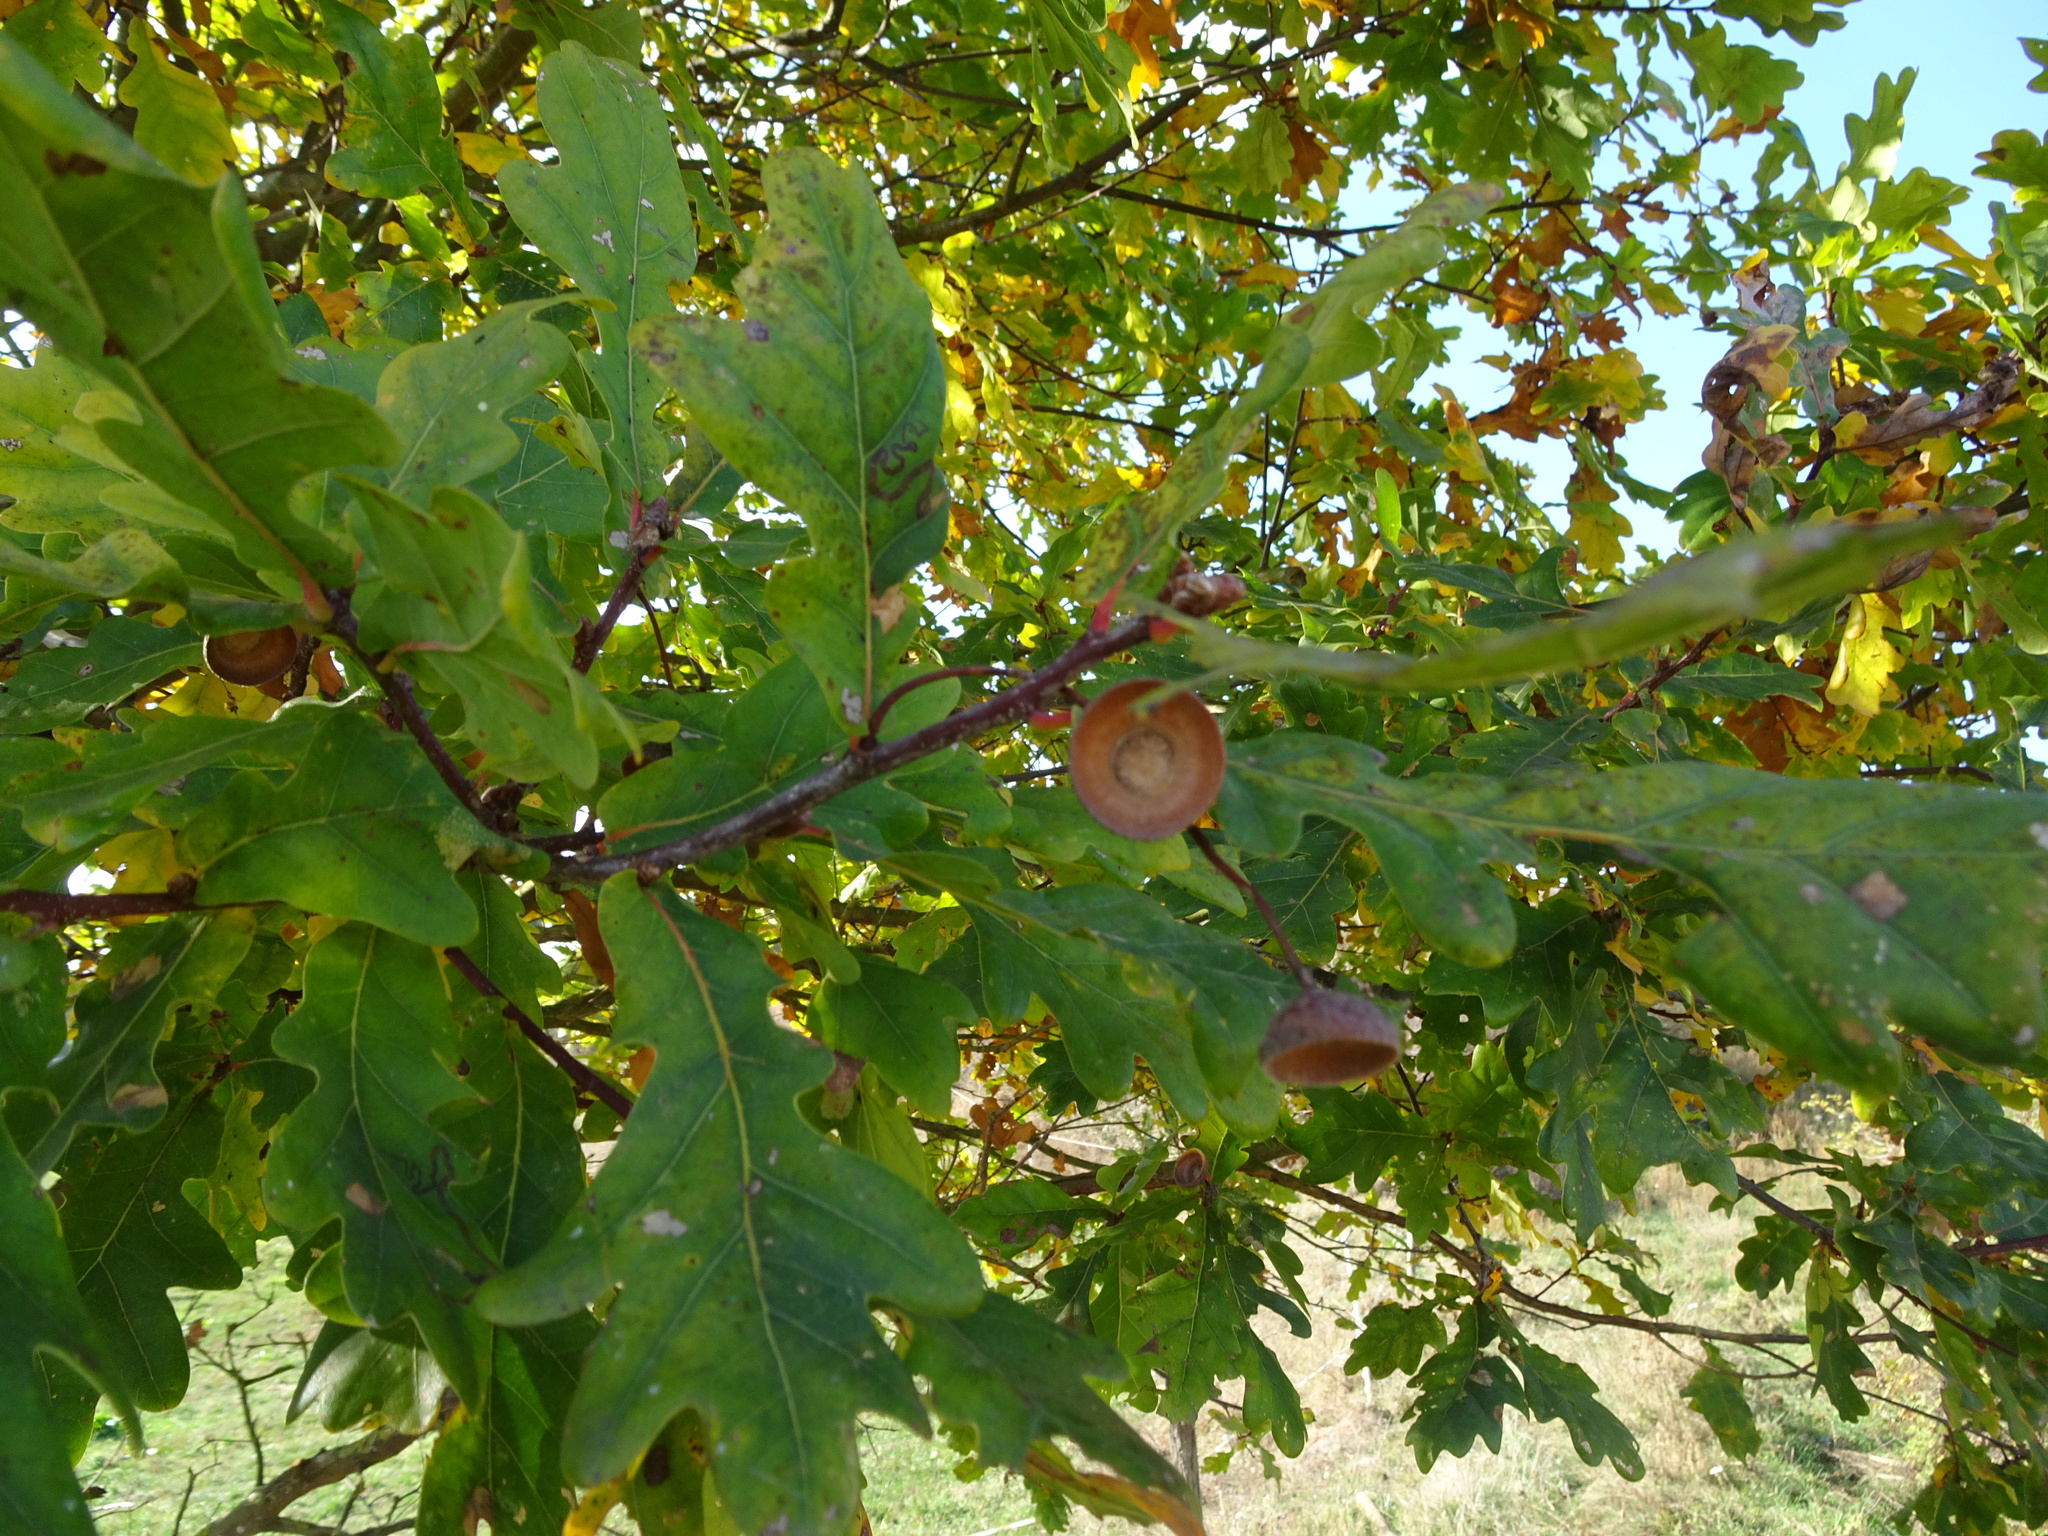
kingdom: Plantae
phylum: Tracheophyta
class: Magnoliopsida
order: Fagales
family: Fagaceae
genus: Quercus
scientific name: Quercus robur
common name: Pedunculate oak
